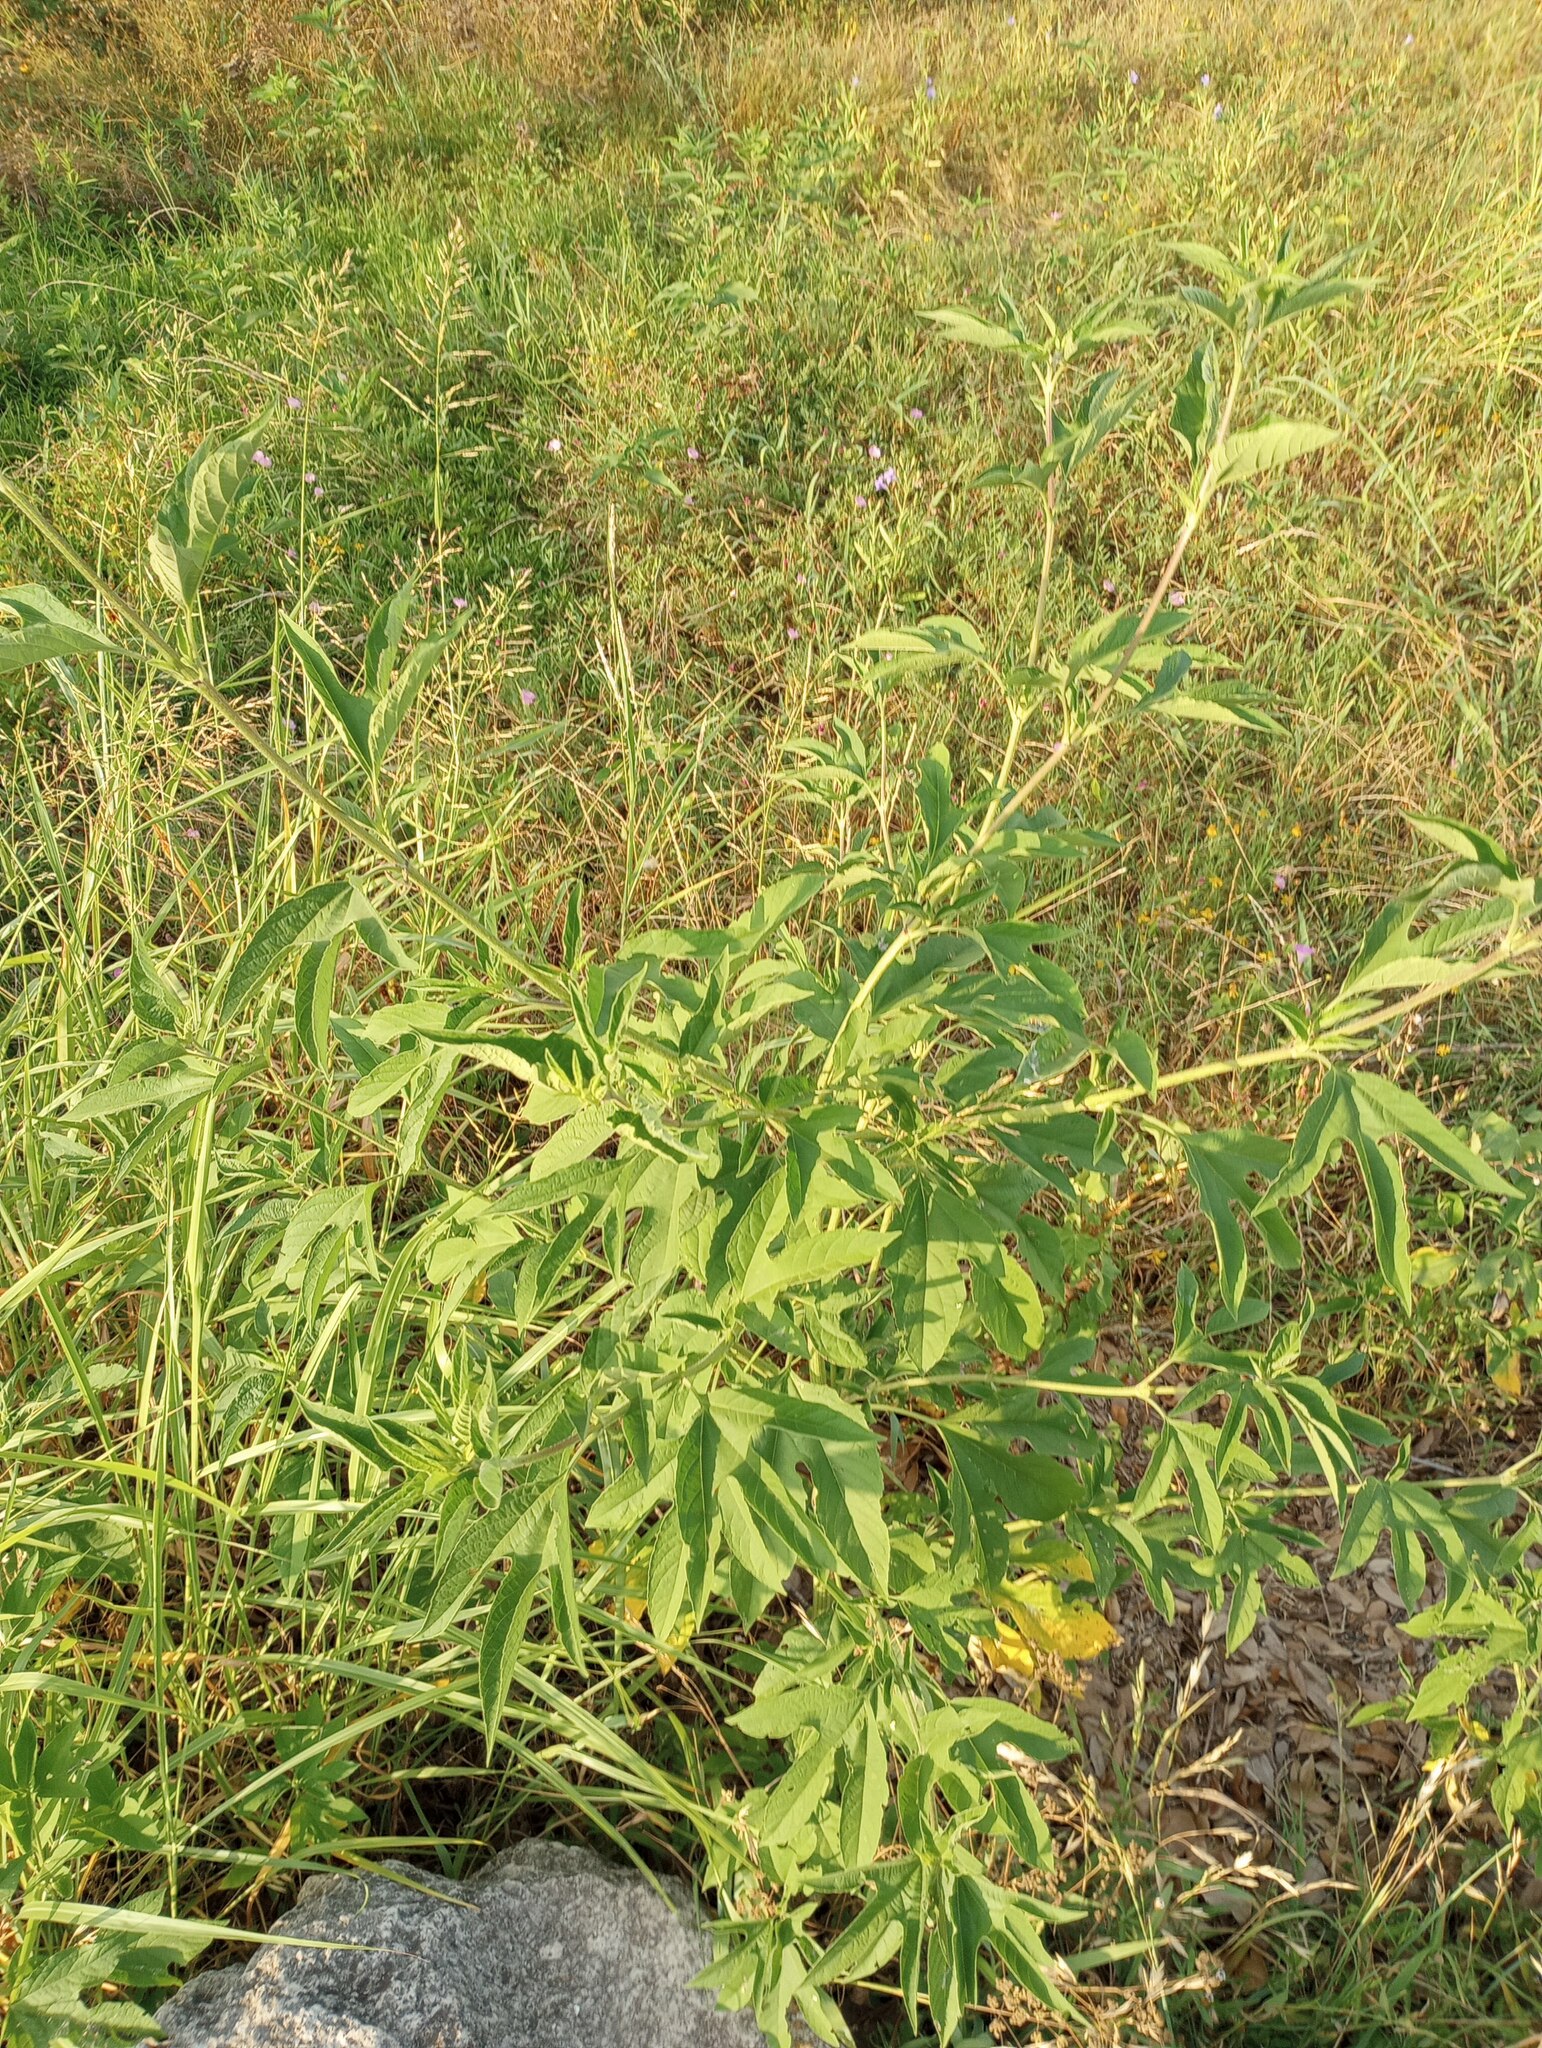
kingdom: Plantae
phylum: Tracheophyta
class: Magnoliopsida
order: Asterales
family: Asteraceae
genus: Ambrosia
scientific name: Ambrosia trifida
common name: Giant ragweed
